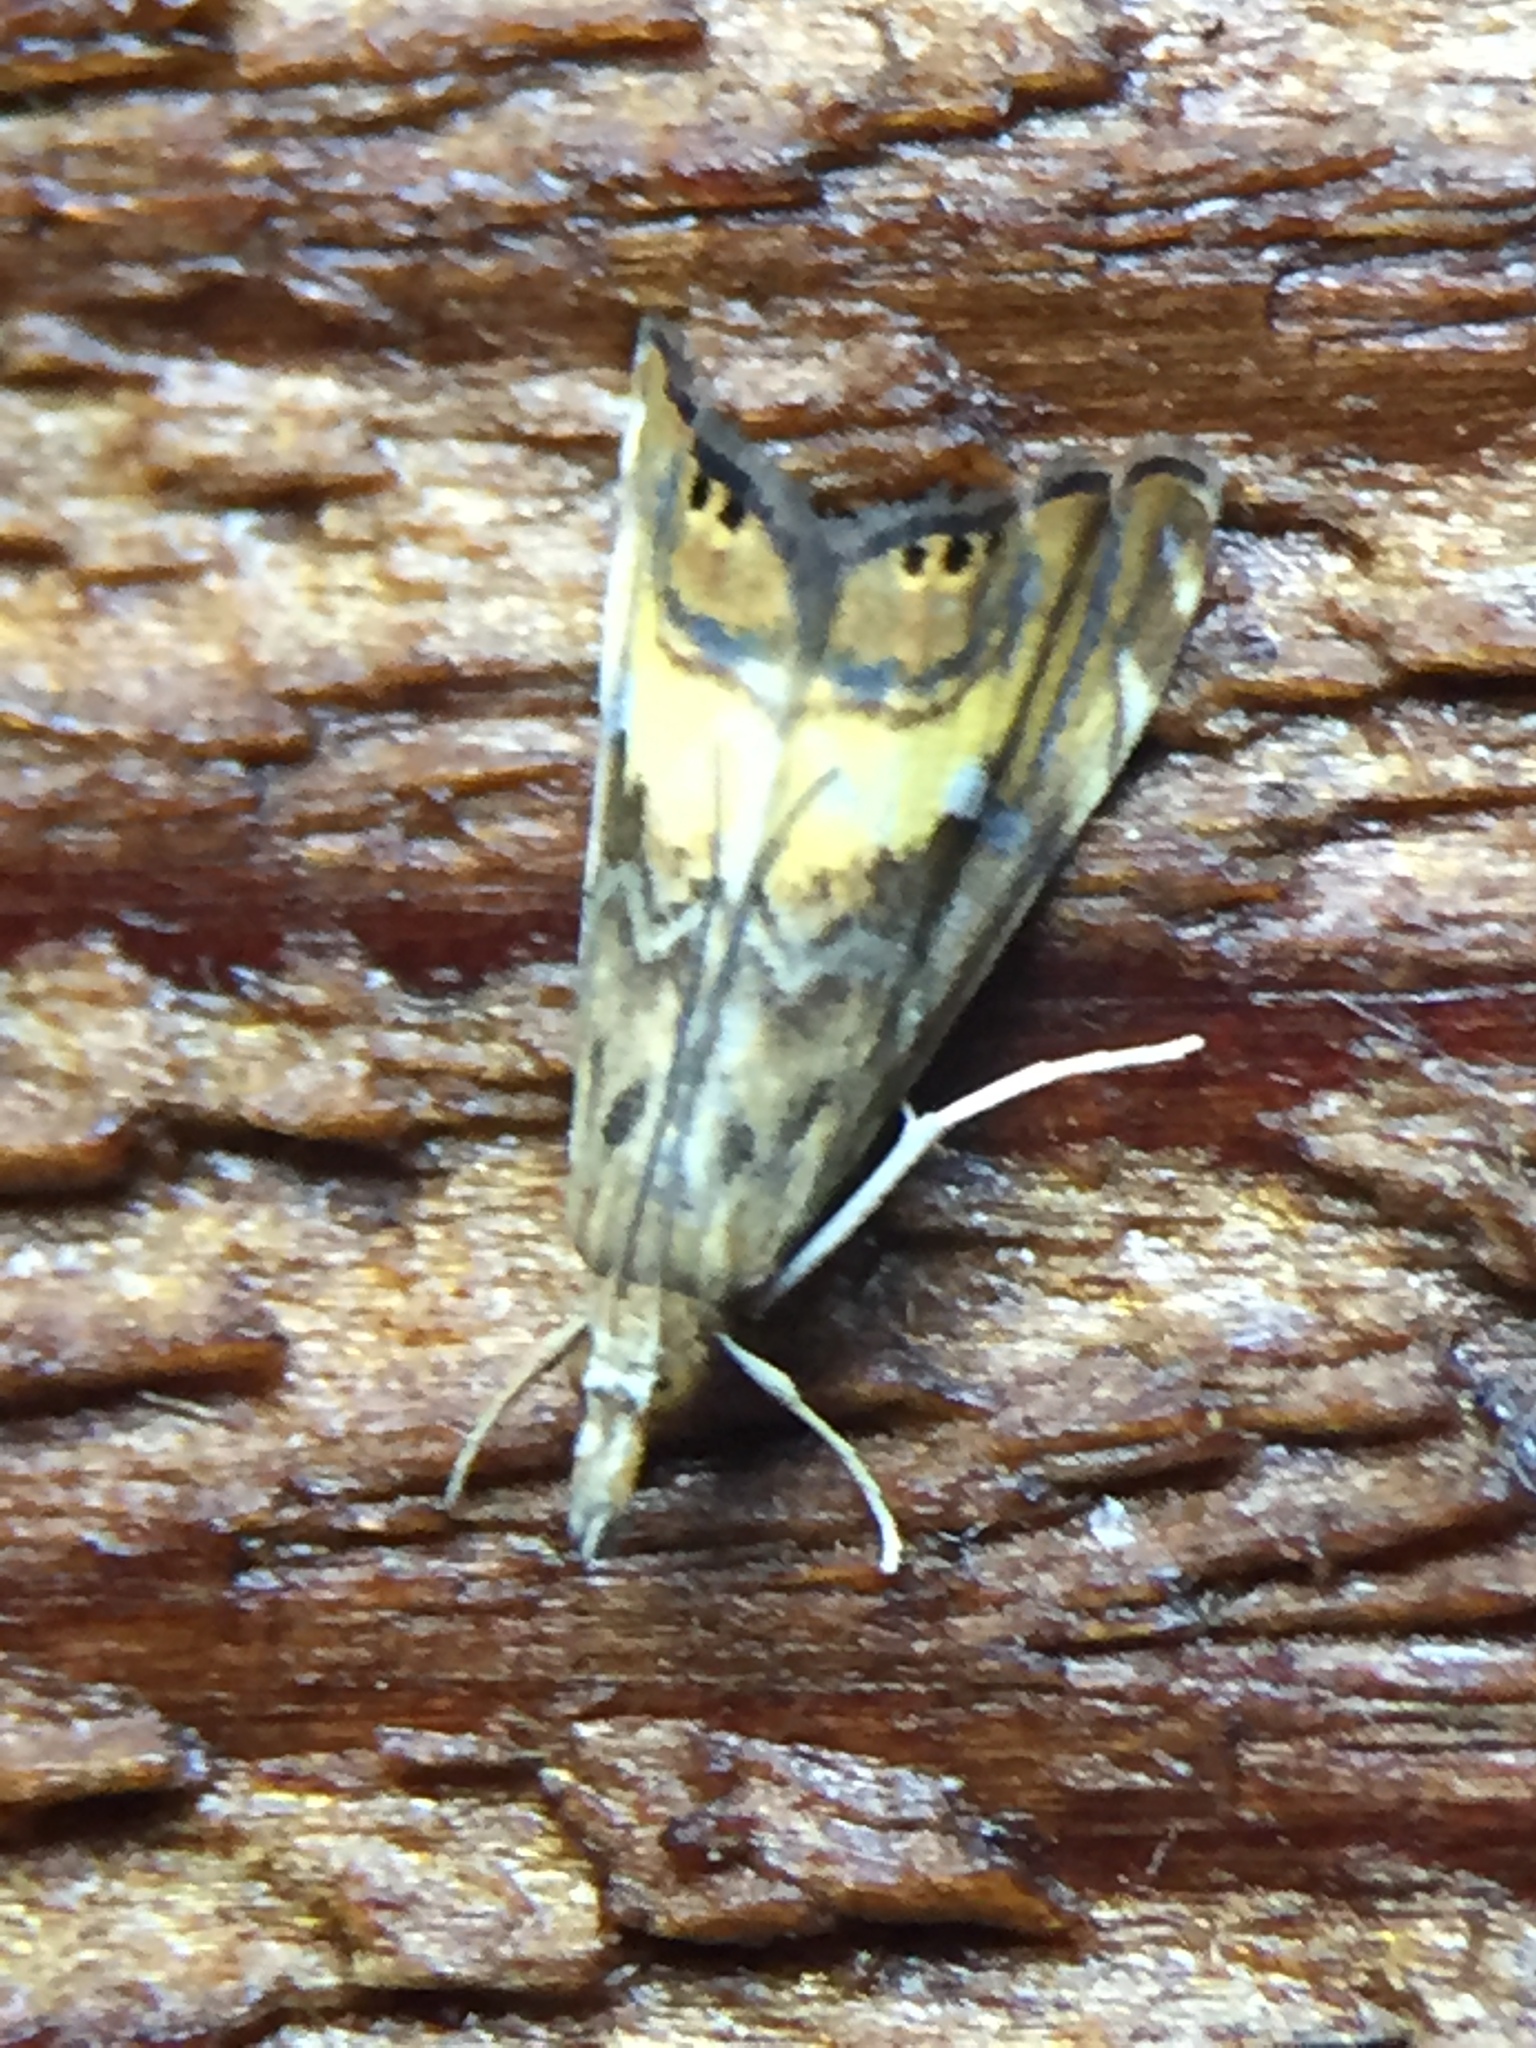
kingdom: Animalia
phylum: Arthropoda
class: Insecta
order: Lepidoptera
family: Crambidae
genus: Glaucocharis
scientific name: Glaucocharis chrysochyta
